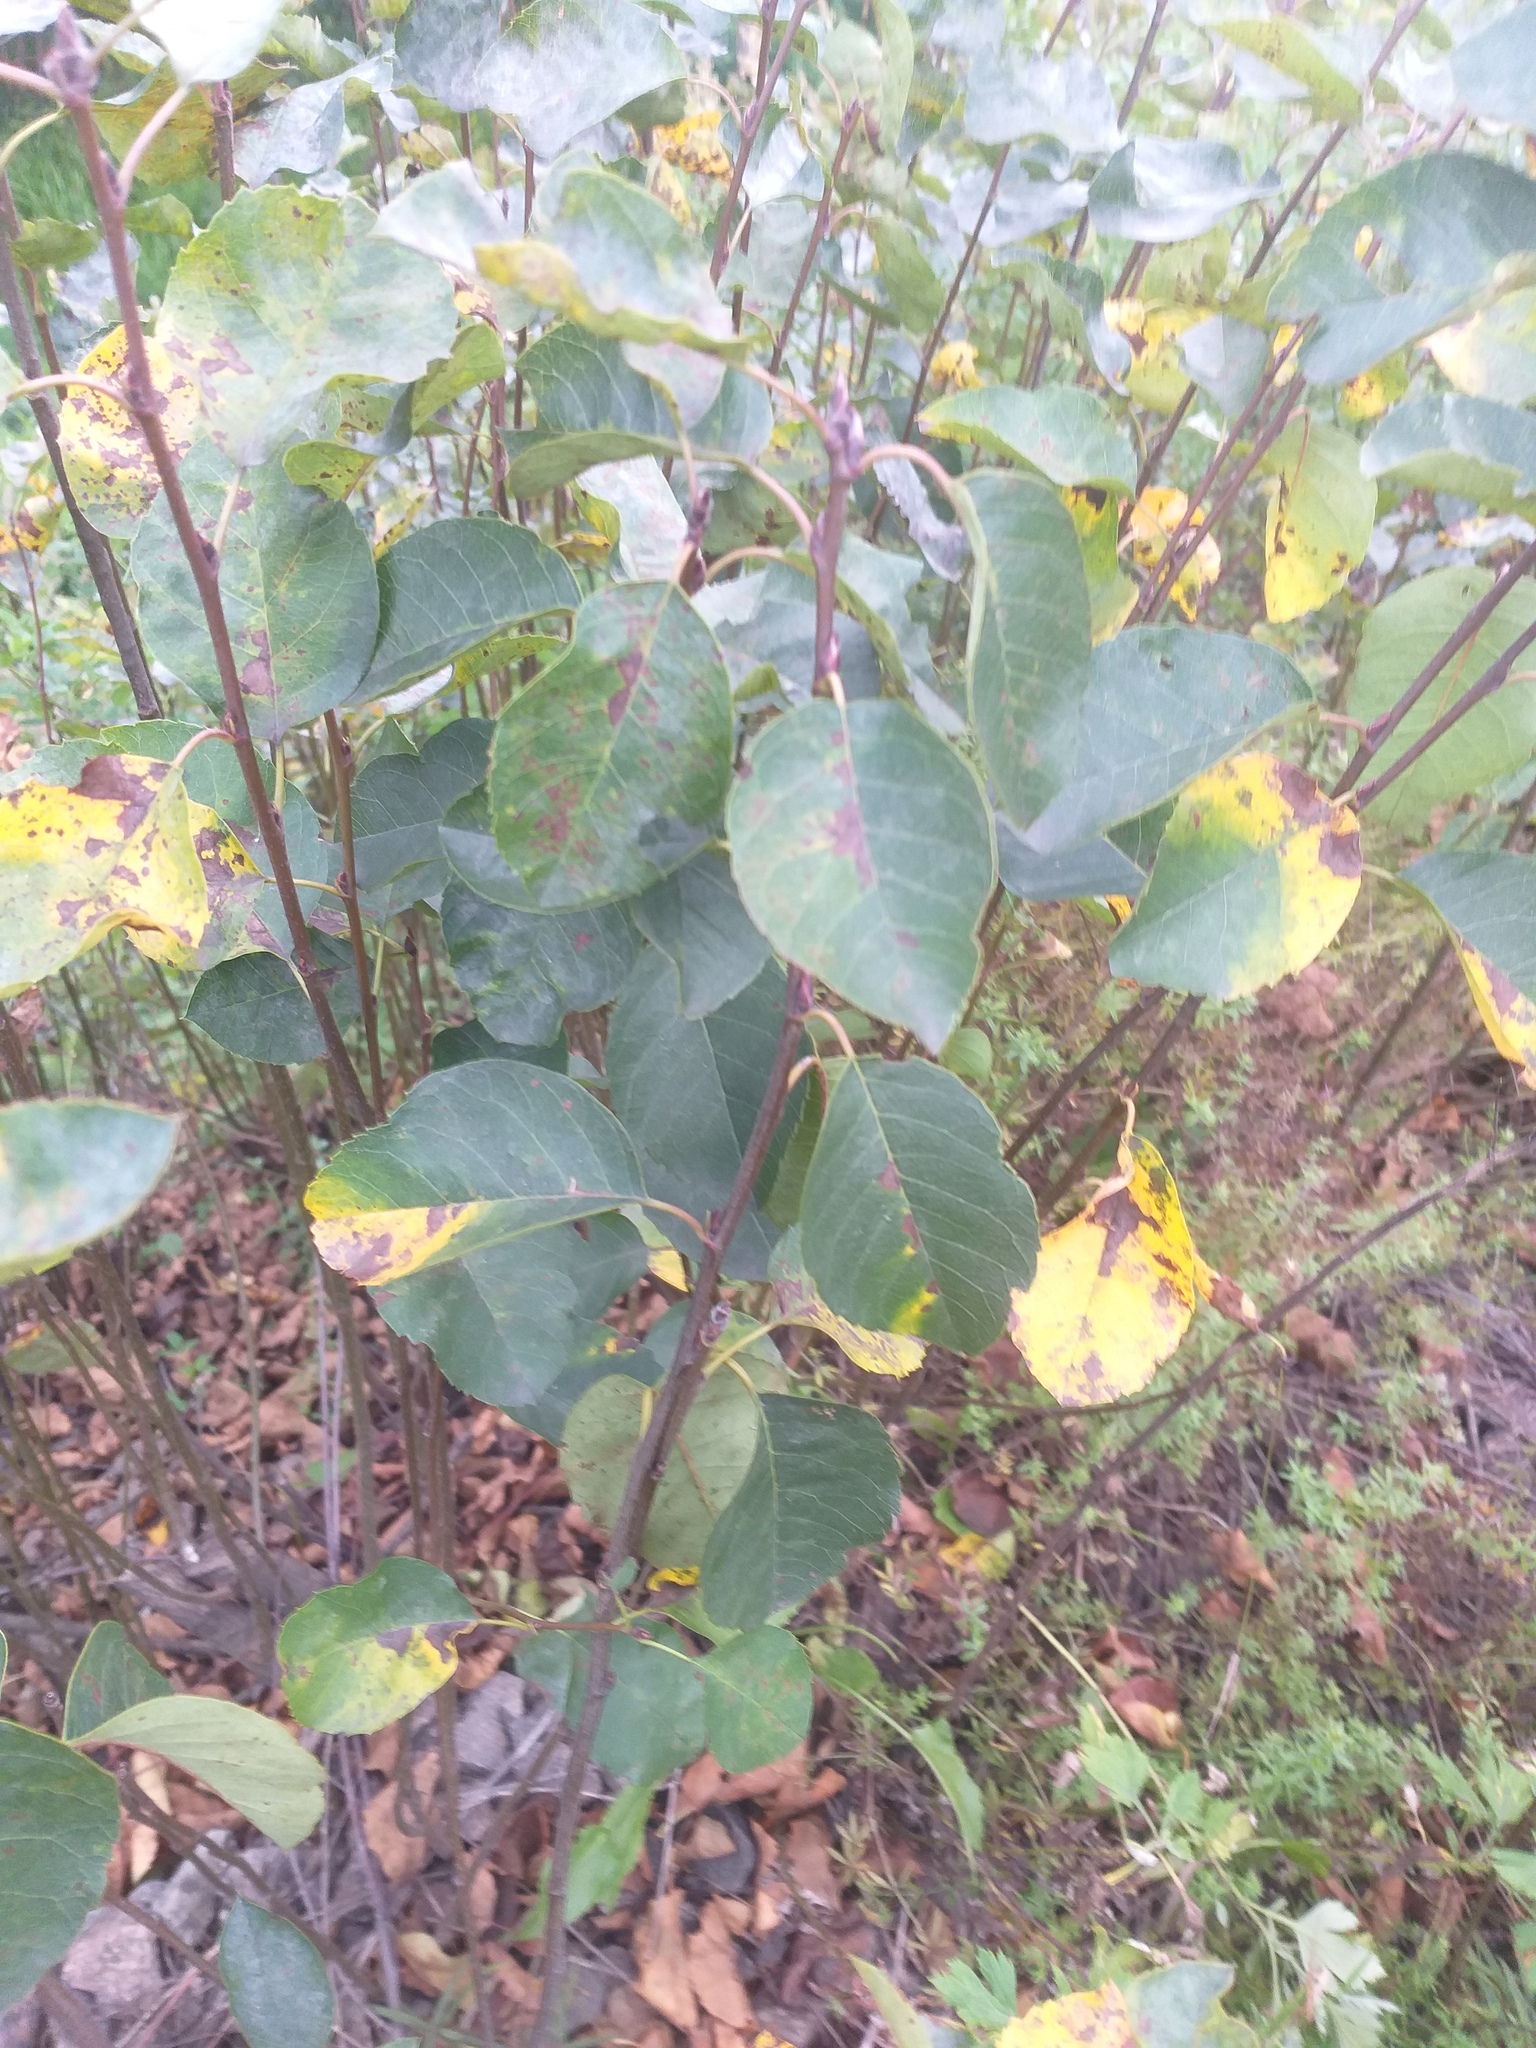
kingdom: Plantae
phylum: Tracheophyta
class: Magnoliopsida
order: Rosales
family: Rosaceae
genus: Amelanchier
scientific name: Amelanchier
